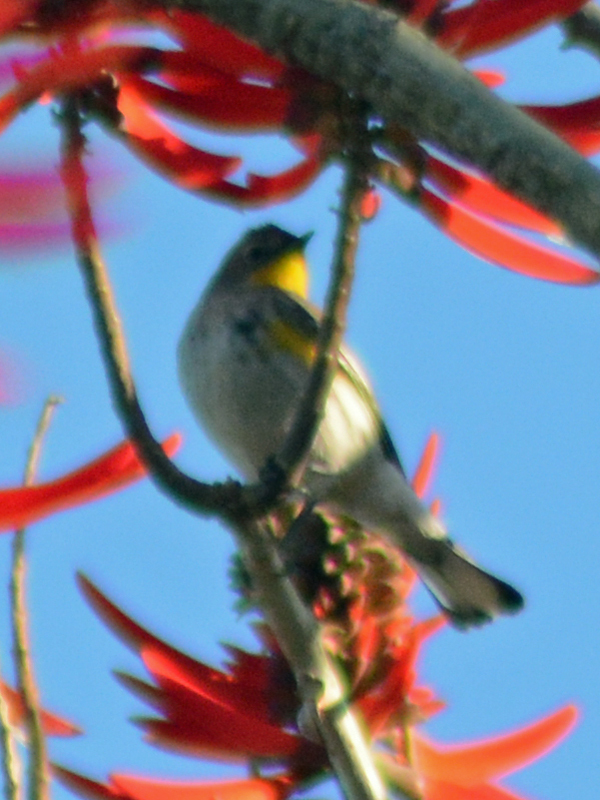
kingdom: Animalia
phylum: Chordata
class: Aves
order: Passeriformes
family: Parulidae
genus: Setophaga
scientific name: Setophaga coronata
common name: Myrtle warbler
